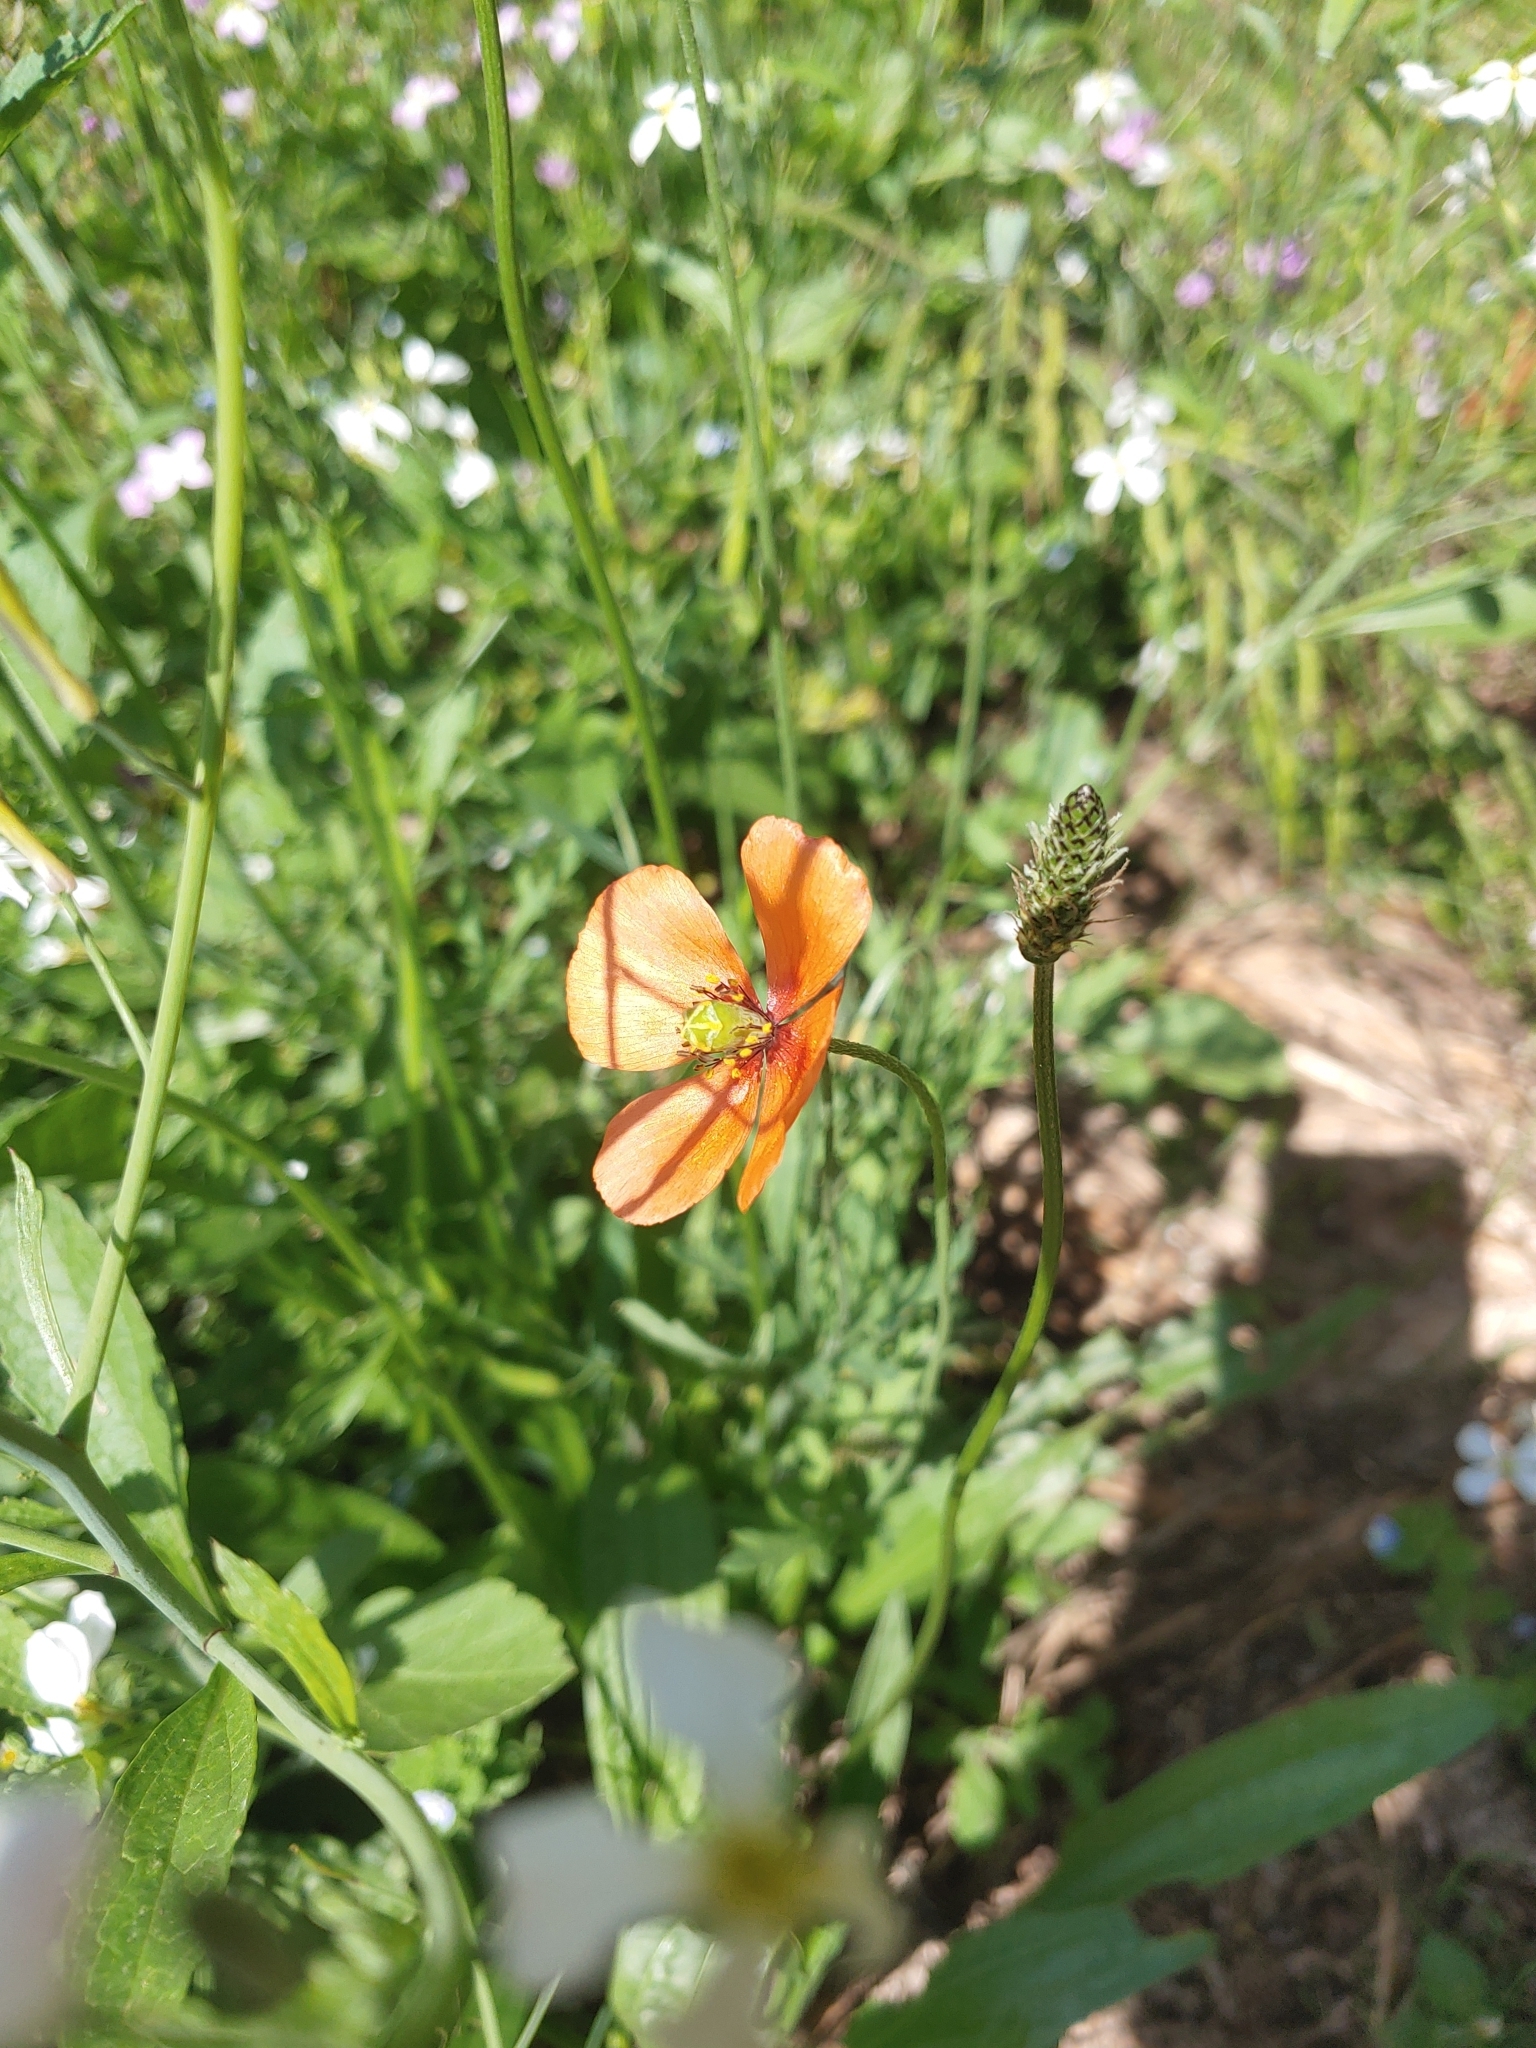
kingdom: Plantae
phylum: Tracheophyta
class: Magnoliopsida
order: Ranunculales
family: Papaveraceae
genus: Papaver
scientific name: Papaver dubium
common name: Long-headed poppy
